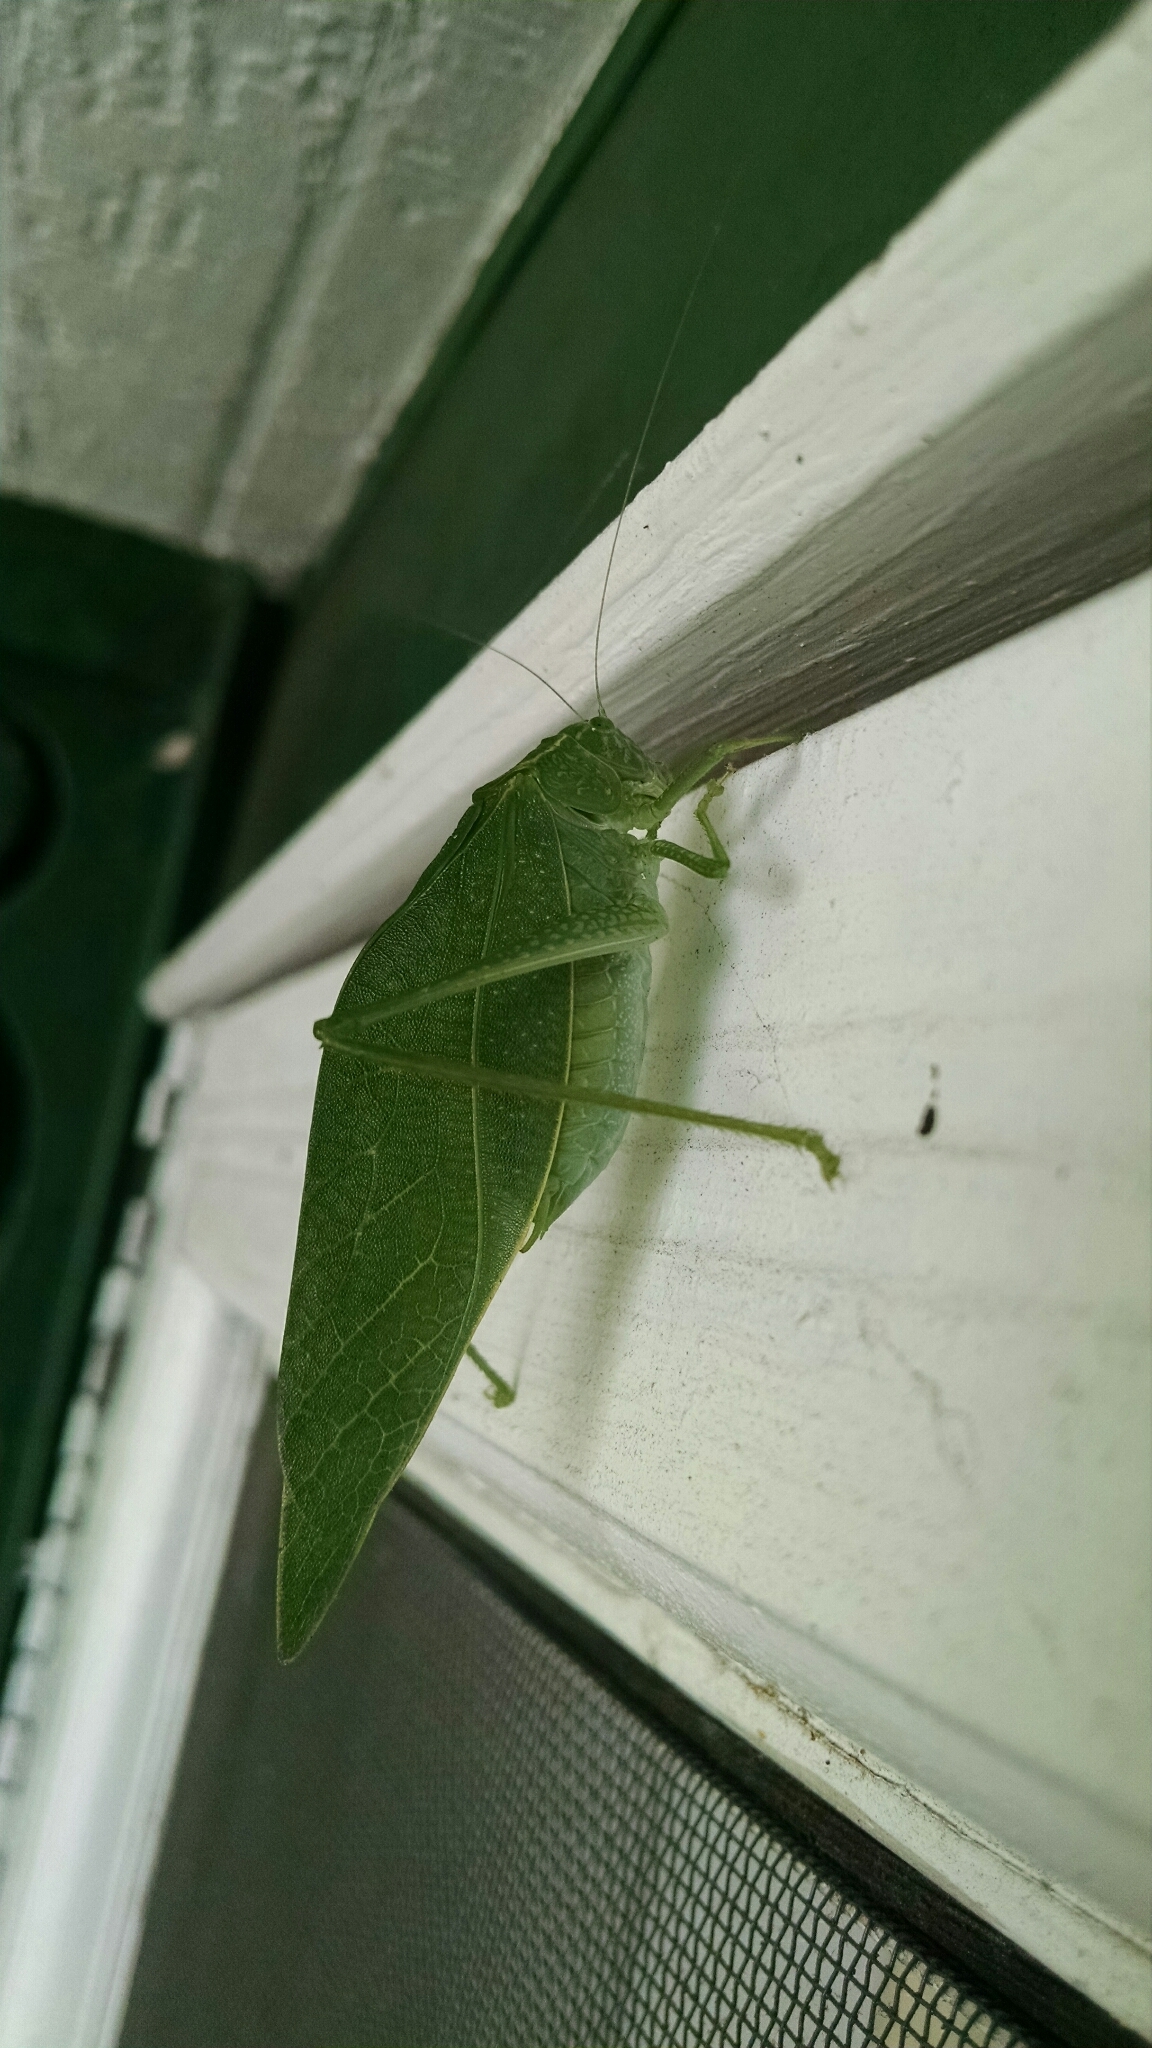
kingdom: Animalia
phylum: Arthropoda
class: Insecta
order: Orthoptera
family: Tettigoniidae
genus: Microcentrum
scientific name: Microcentrum rhombifolium
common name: Broad-winged katydid
